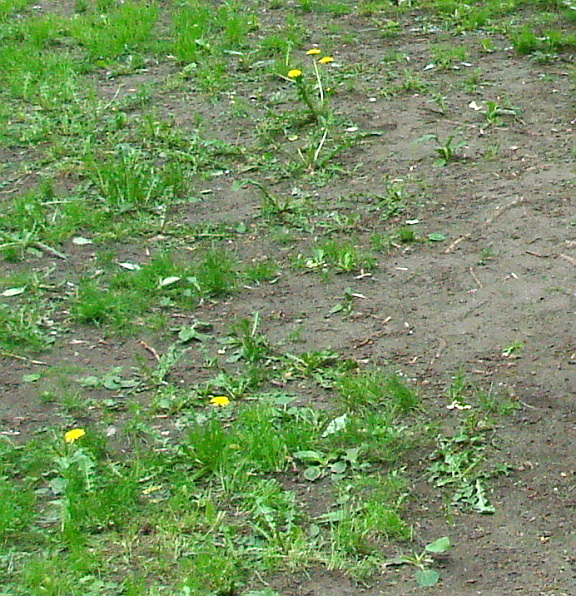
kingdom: Plantae
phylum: Tracheophyta
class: Magnoliopsida
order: Asterales
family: Asteraceae
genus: Taraxacum
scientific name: Taraxacum officinale
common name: Common dandelion
